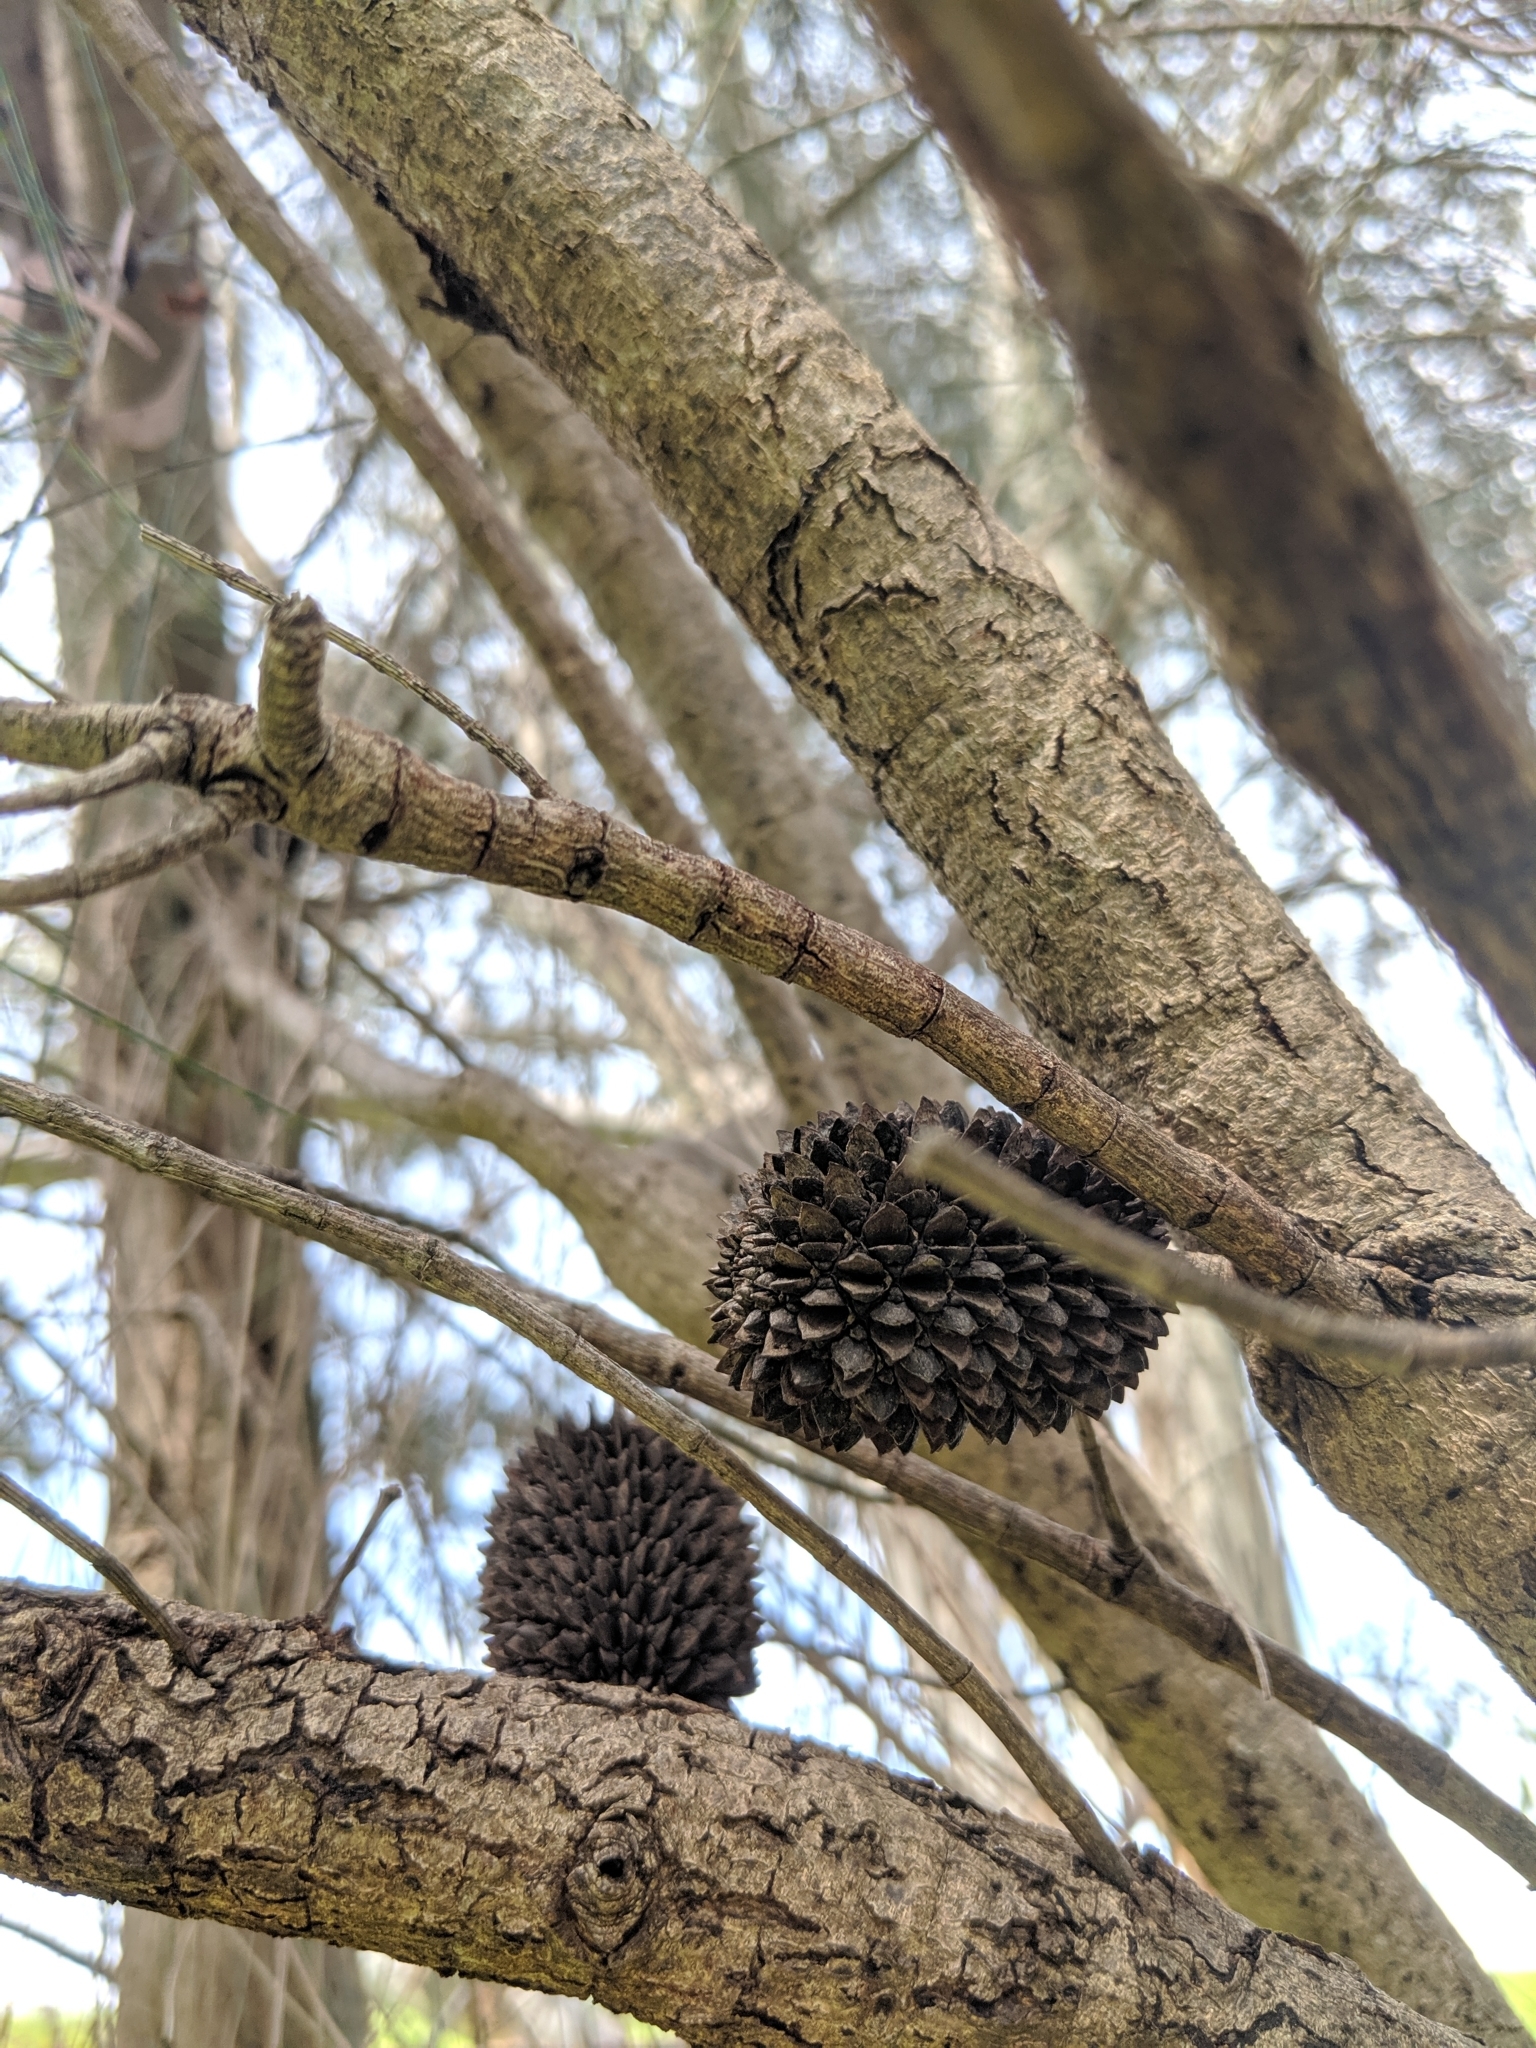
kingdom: Plantae
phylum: Tracheophyta
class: Magnoliopsida
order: Fagales
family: Casuarinaceae
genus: Allocasuarina
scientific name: Allocasuarina verticillata
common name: Drooping she-oak
